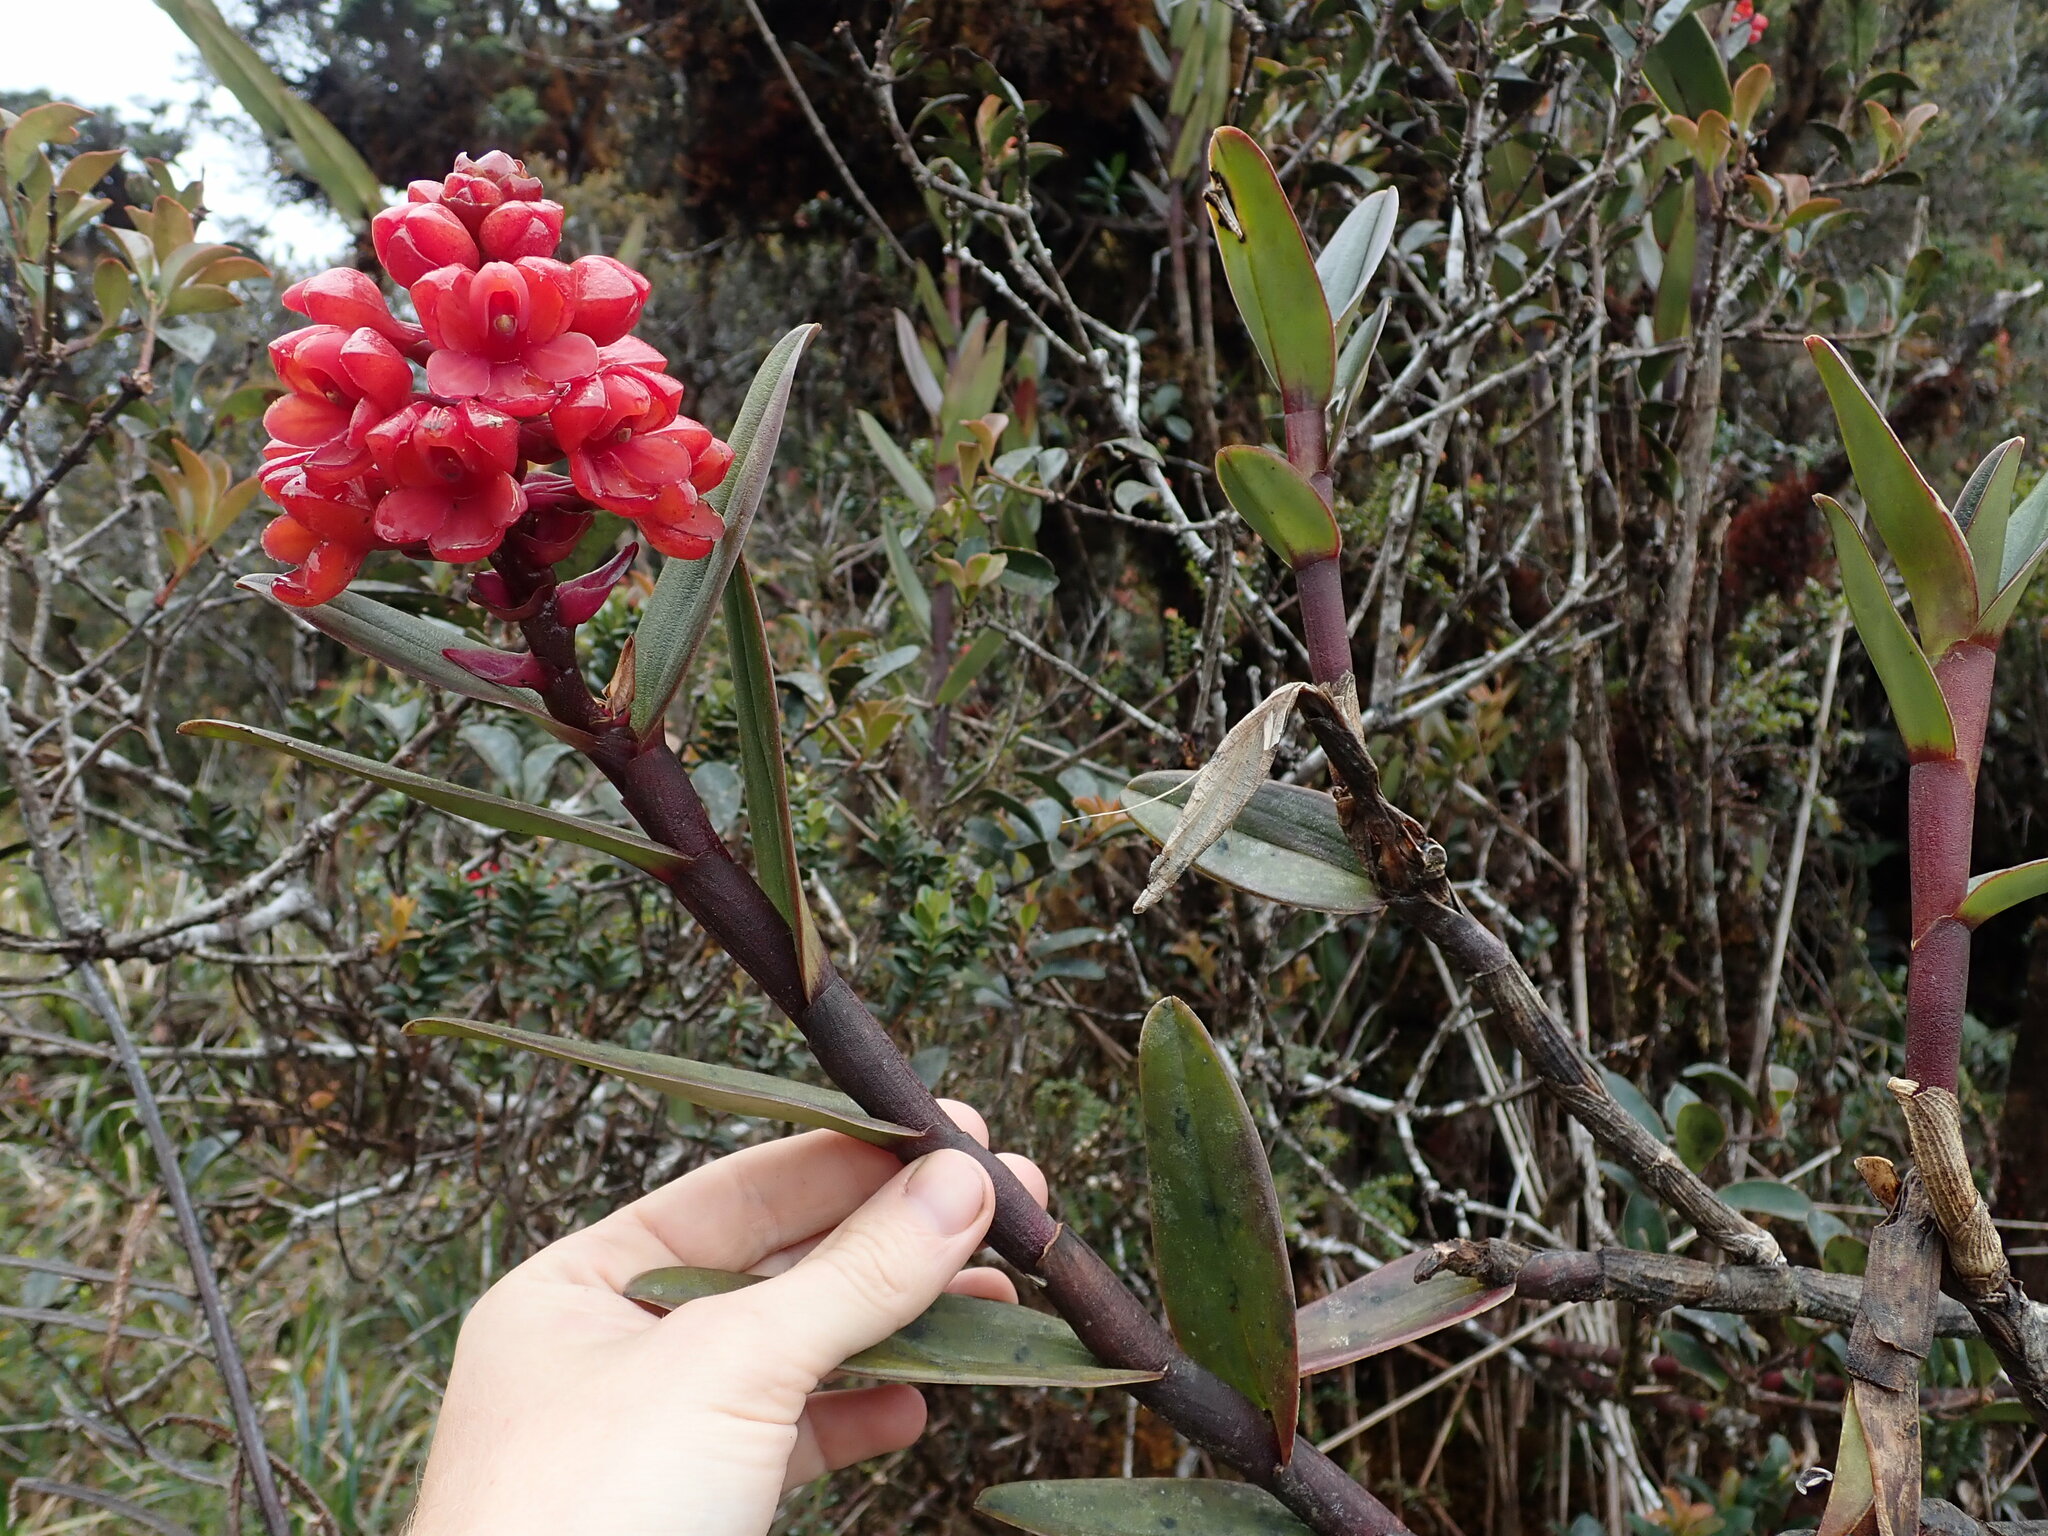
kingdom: Plantae
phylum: Tracheophyta
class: Liliopsida
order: Asparagales
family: Orchidaceae
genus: Epidendrum
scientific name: Epidendrum ariasii
